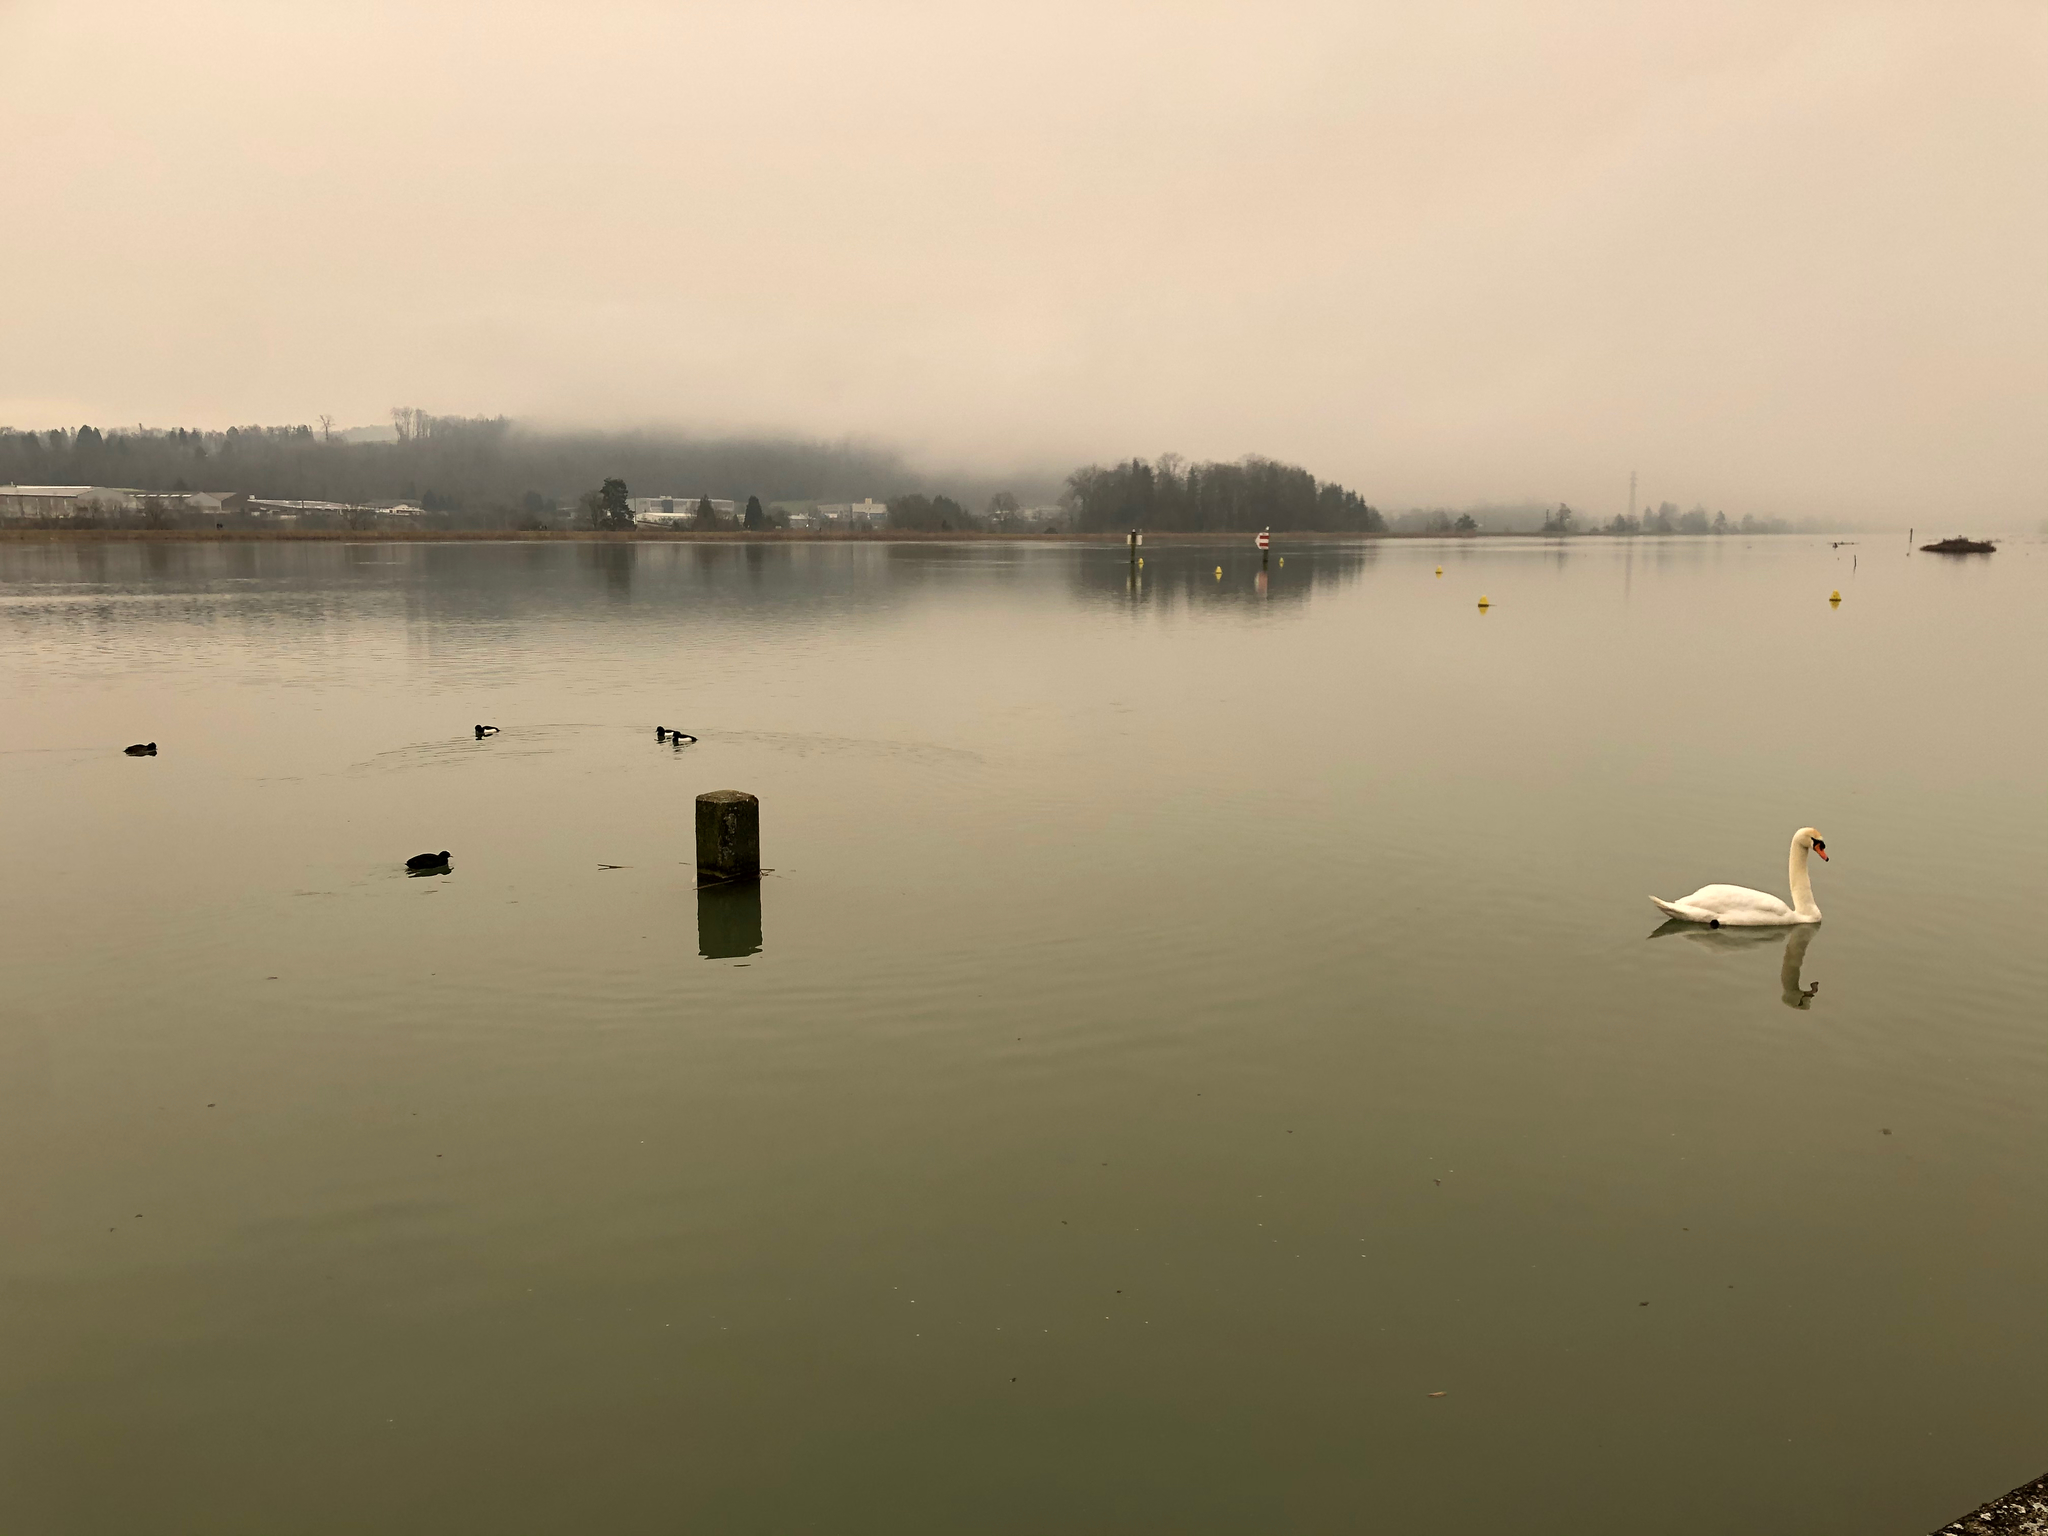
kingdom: Animalia
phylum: Chordata
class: Aves
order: Anseriformes
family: Anatidae
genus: Cygnus
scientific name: Cygnus olor
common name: Mute swan
